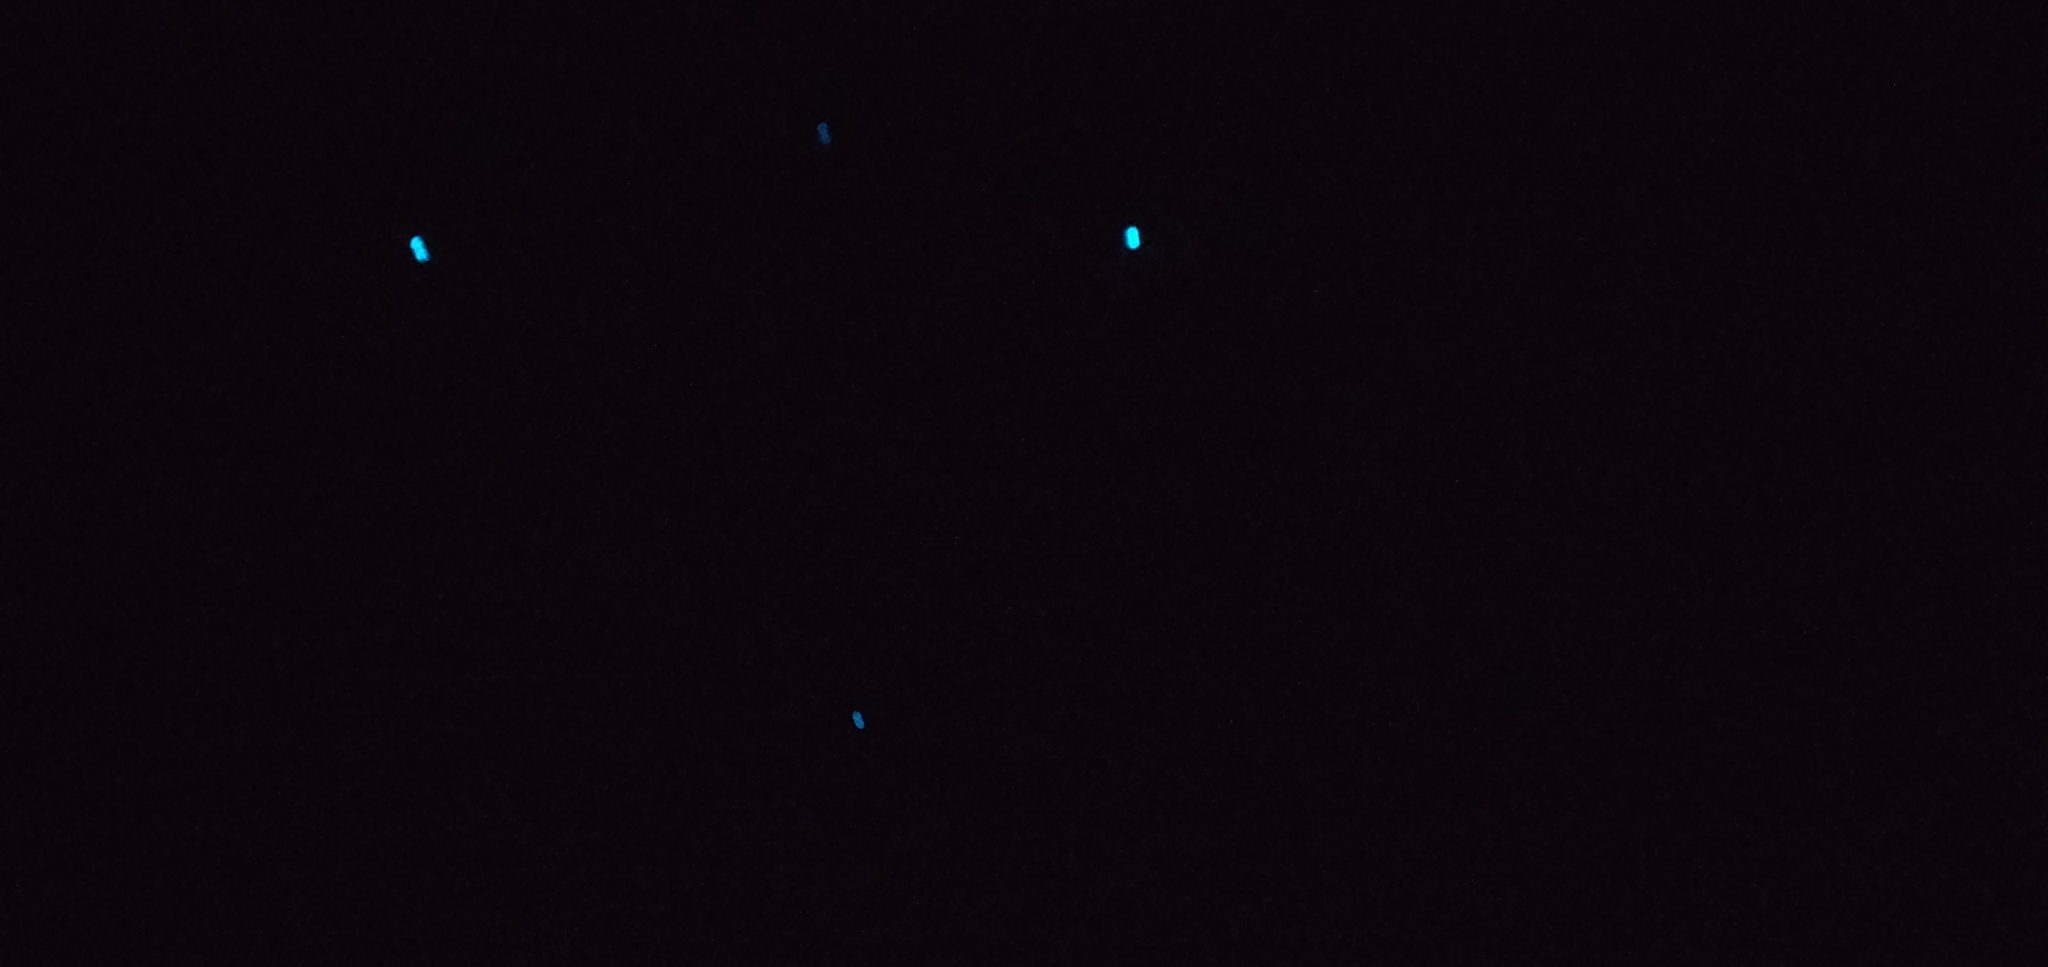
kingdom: Animalia
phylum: Arthropoda
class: Insecta
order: Diptera
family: Keroplatidae
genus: Arachnocampa
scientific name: Arachnocampa luminosa
